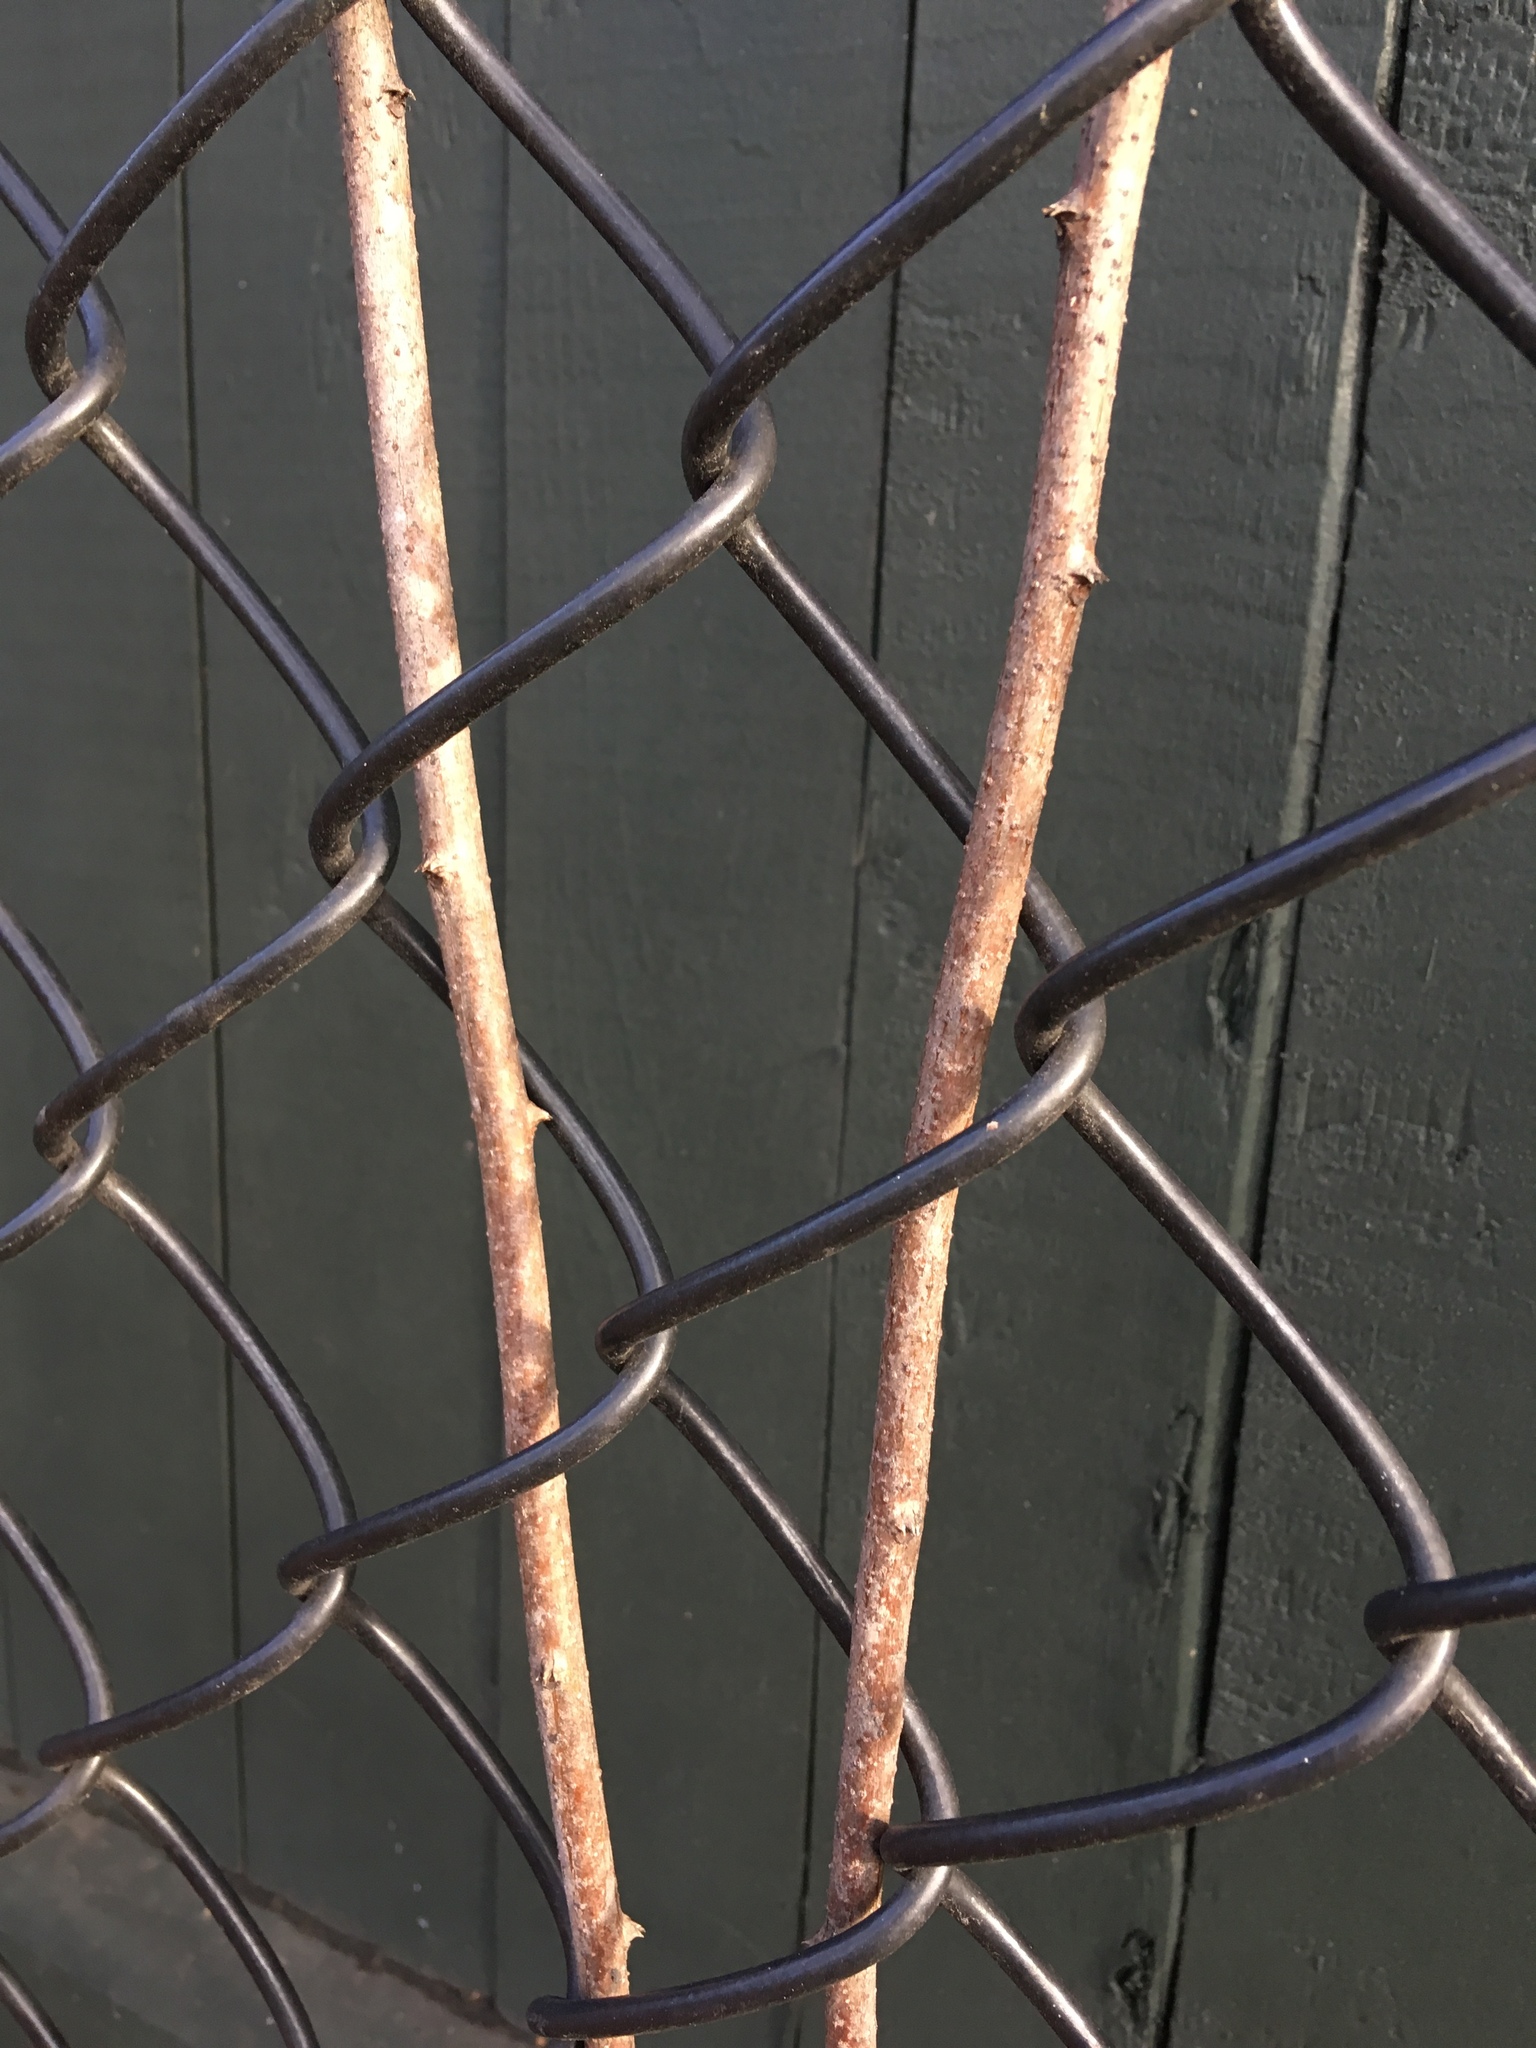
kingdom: Plantae
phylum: Tracheophyta
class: Magnoliopsida
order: Celastrales
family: Celastraceae
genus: Celastrus
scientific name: Celastrus orbiculatus
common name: Oriental bittersweet
